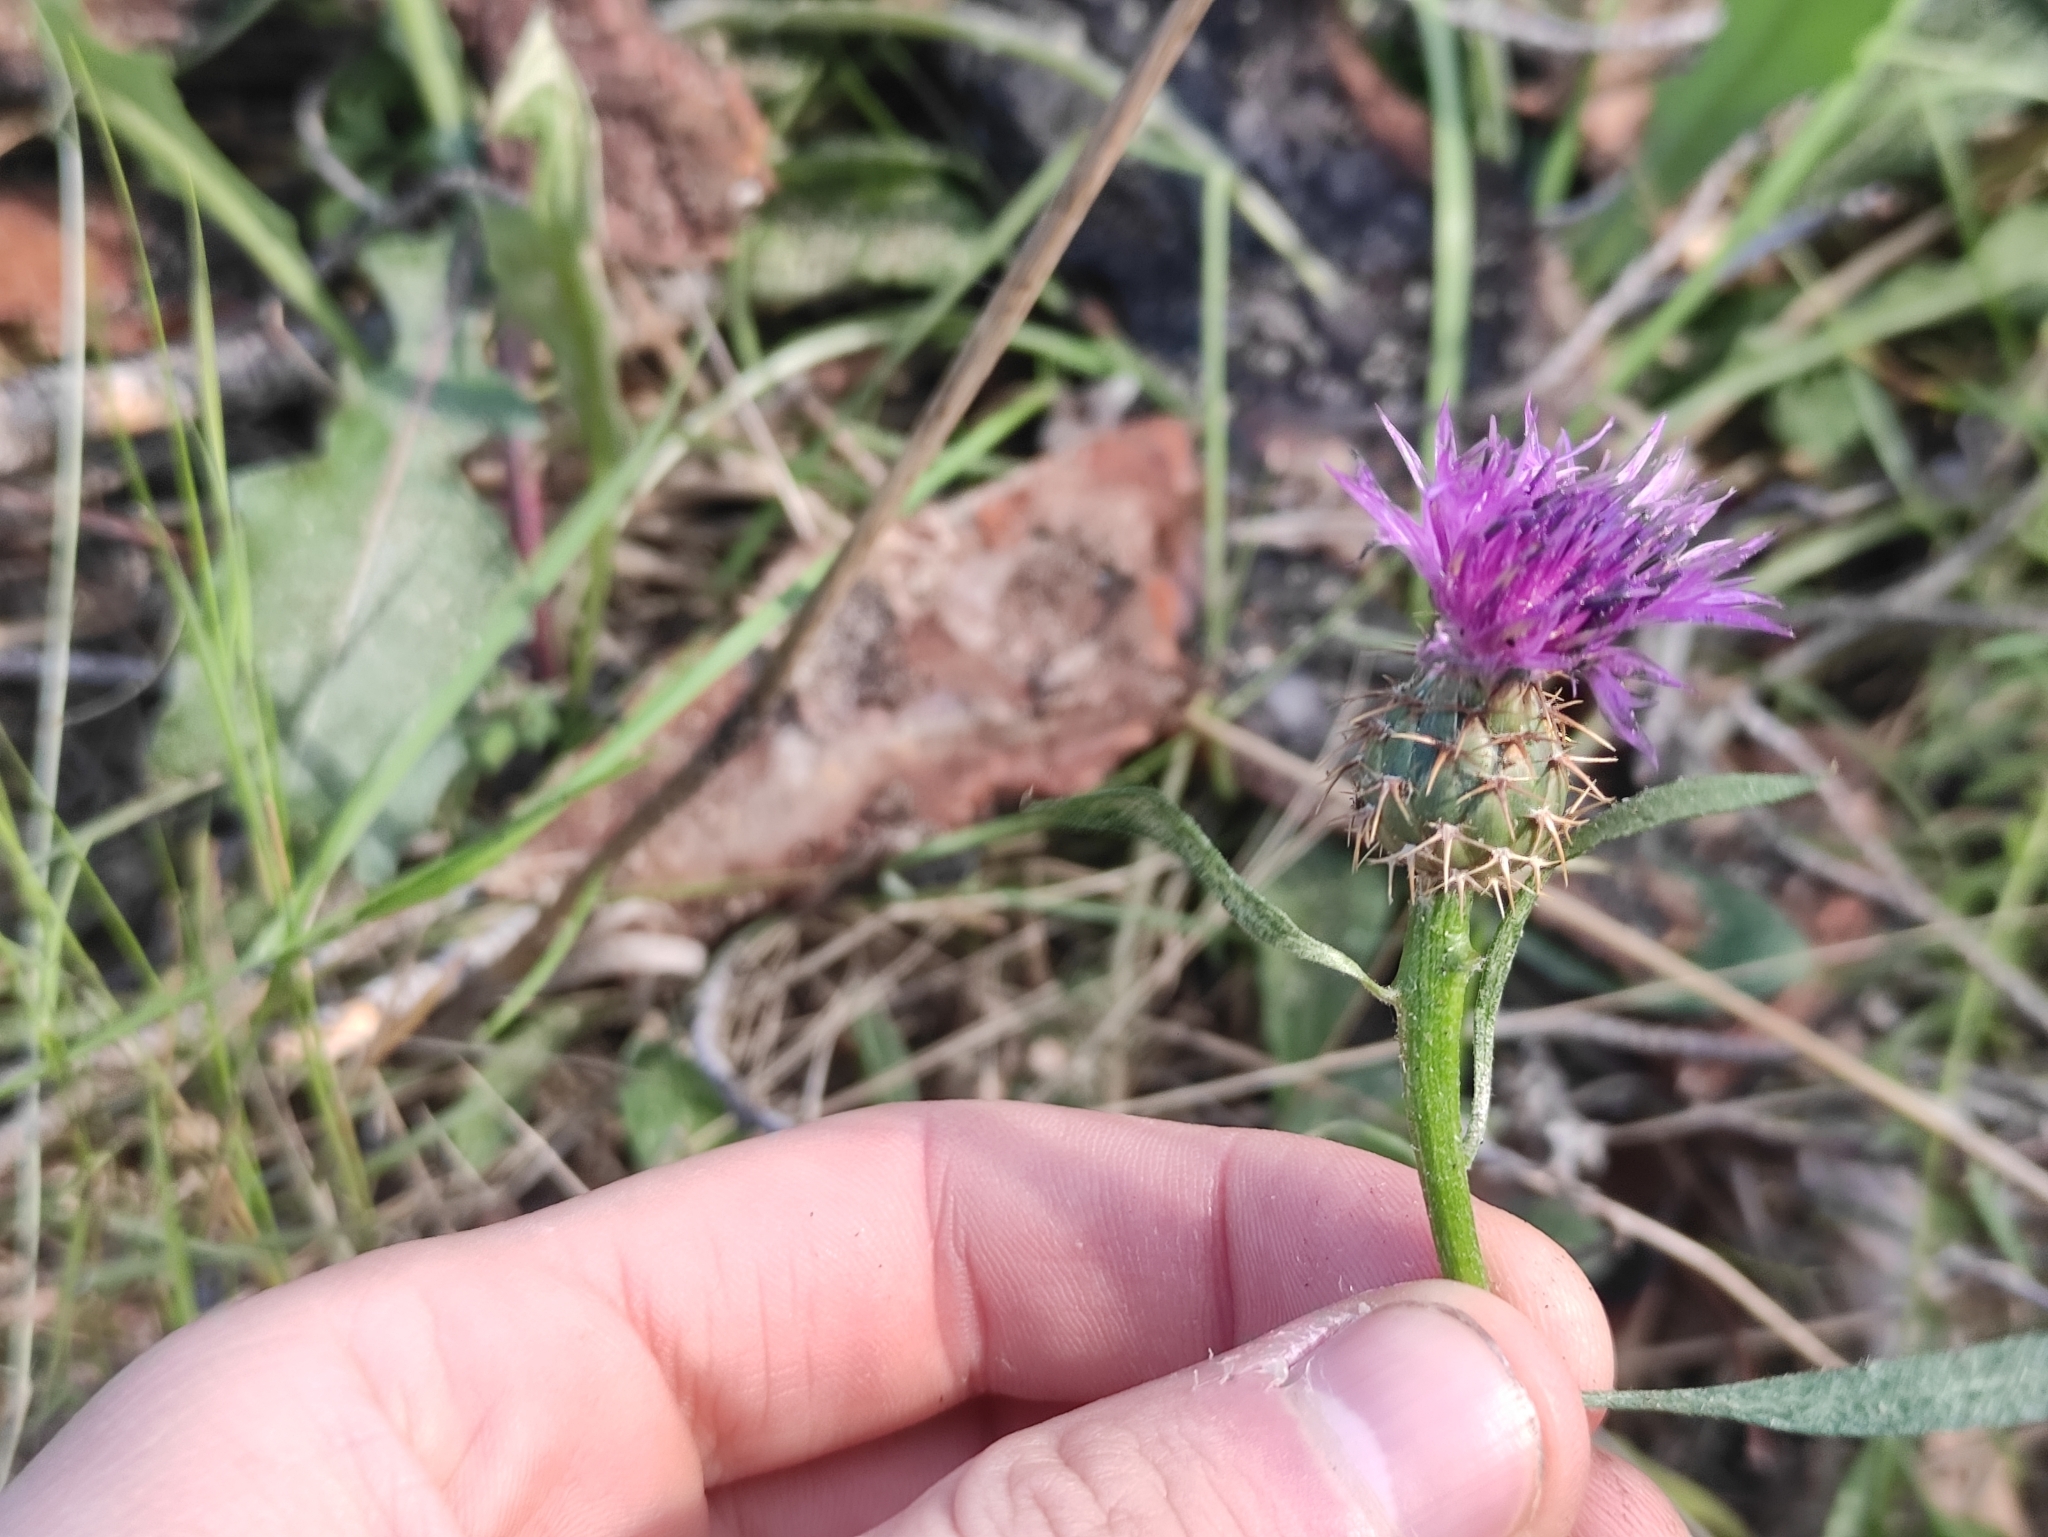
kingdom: Plantae
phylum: Tracheophyta
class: Magnoliopsida
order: Asterales
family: Asteraceae
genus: Centaurea
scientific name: Centaurea aspera
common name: Rough star-thistle
